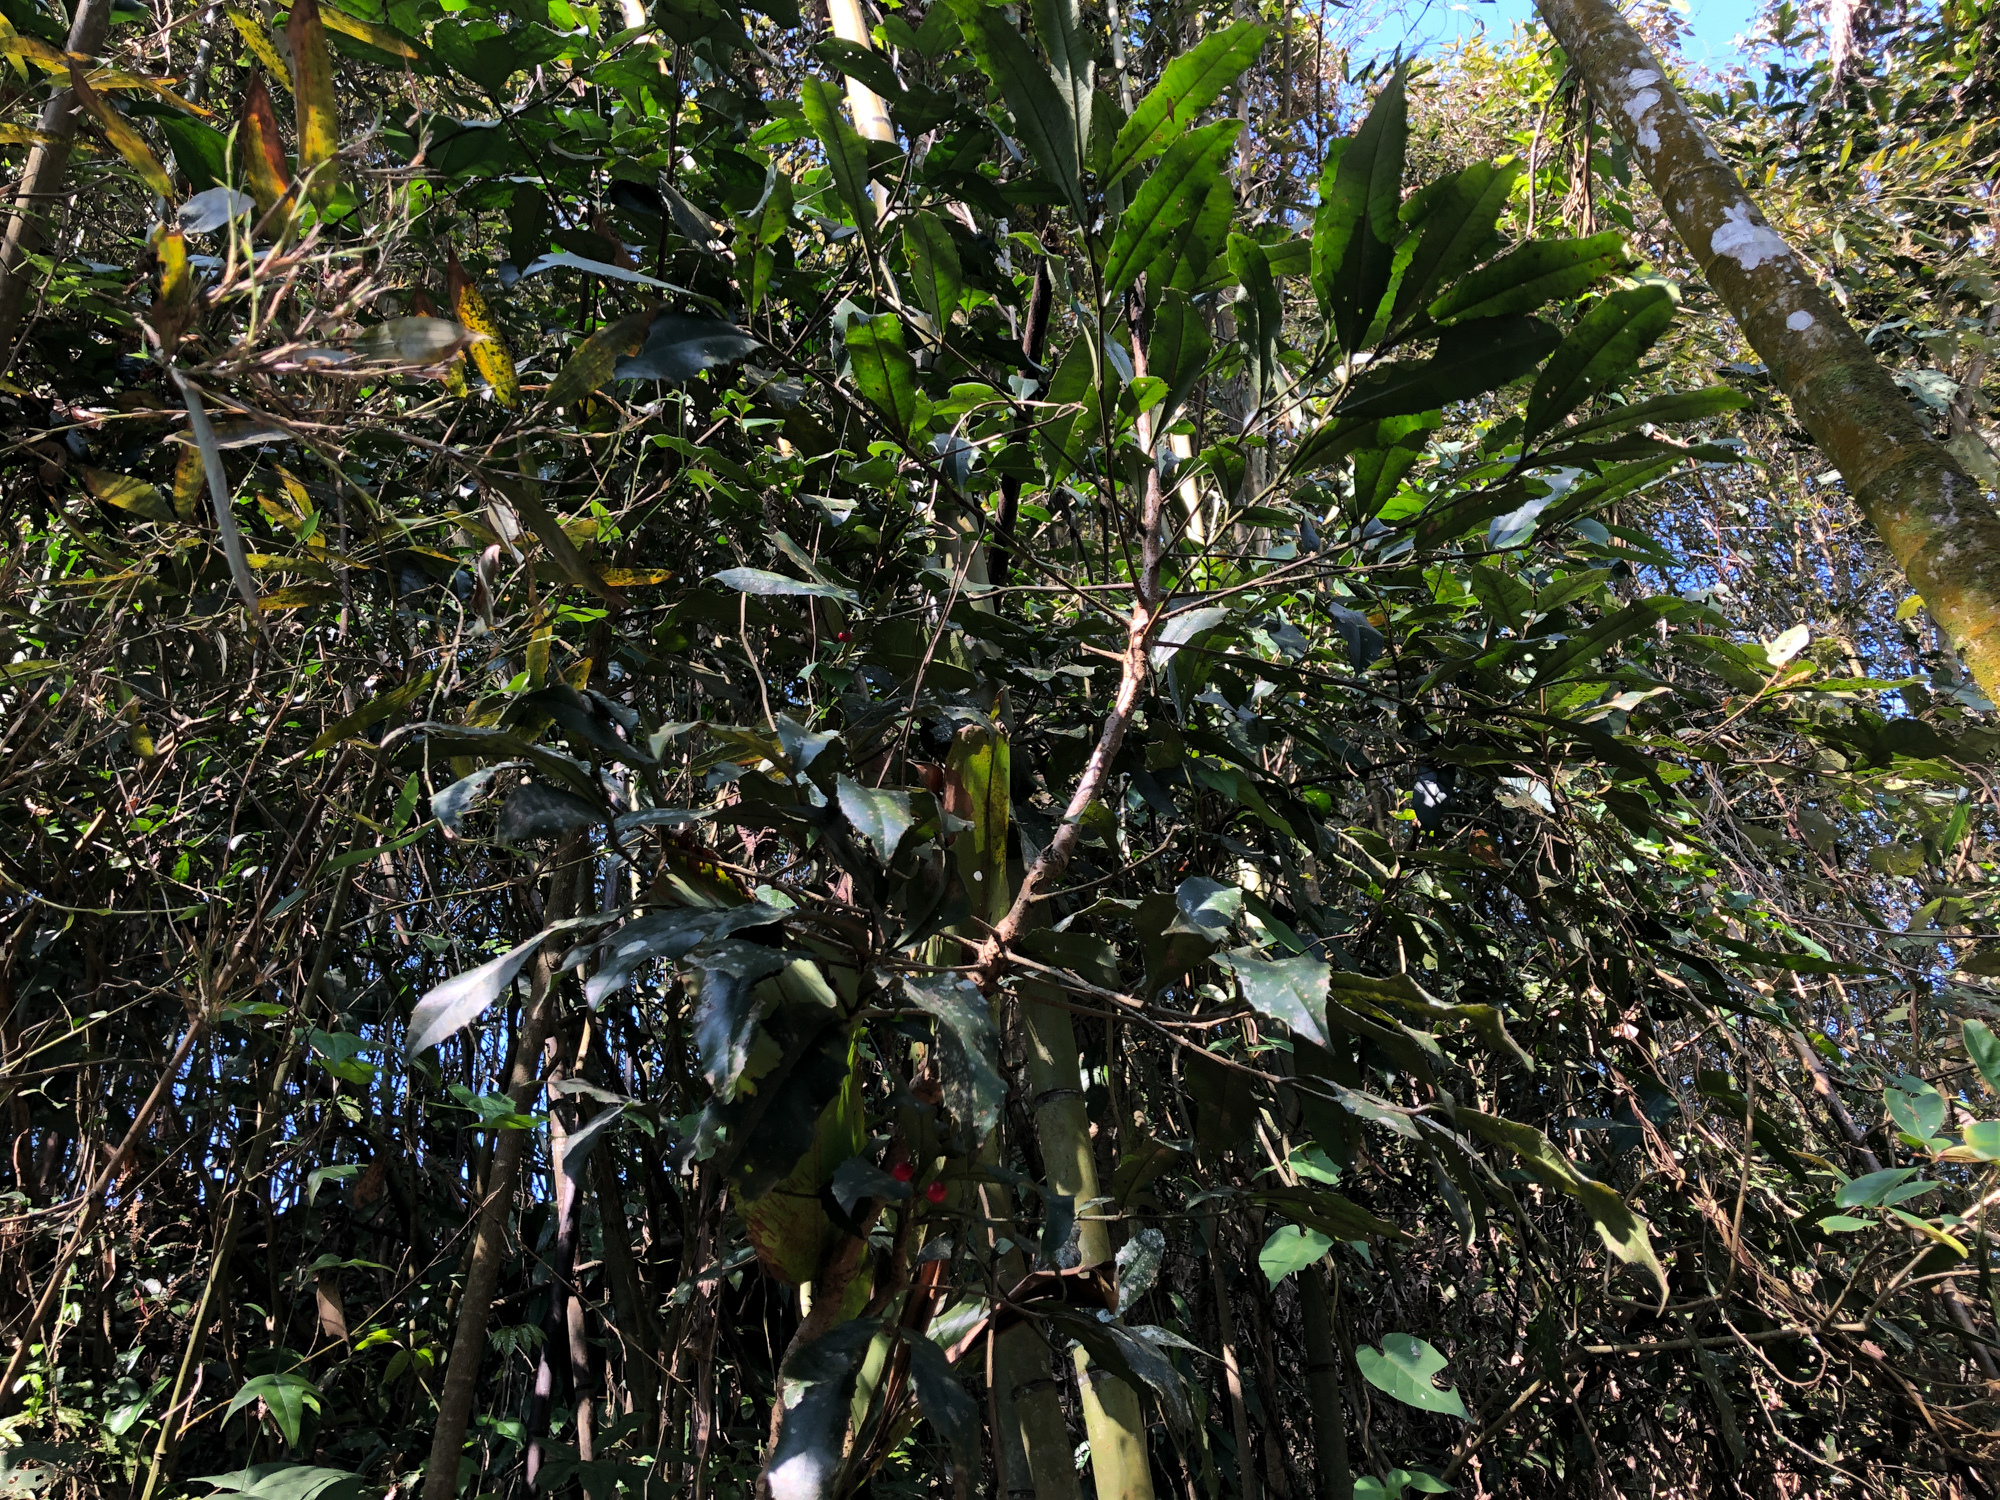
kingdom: Plantae
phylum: Tracheophyta
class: Magnoliopsida
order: Ericales
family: Primulaceae
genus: Ardisia
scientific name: Ardisia cornudentata
